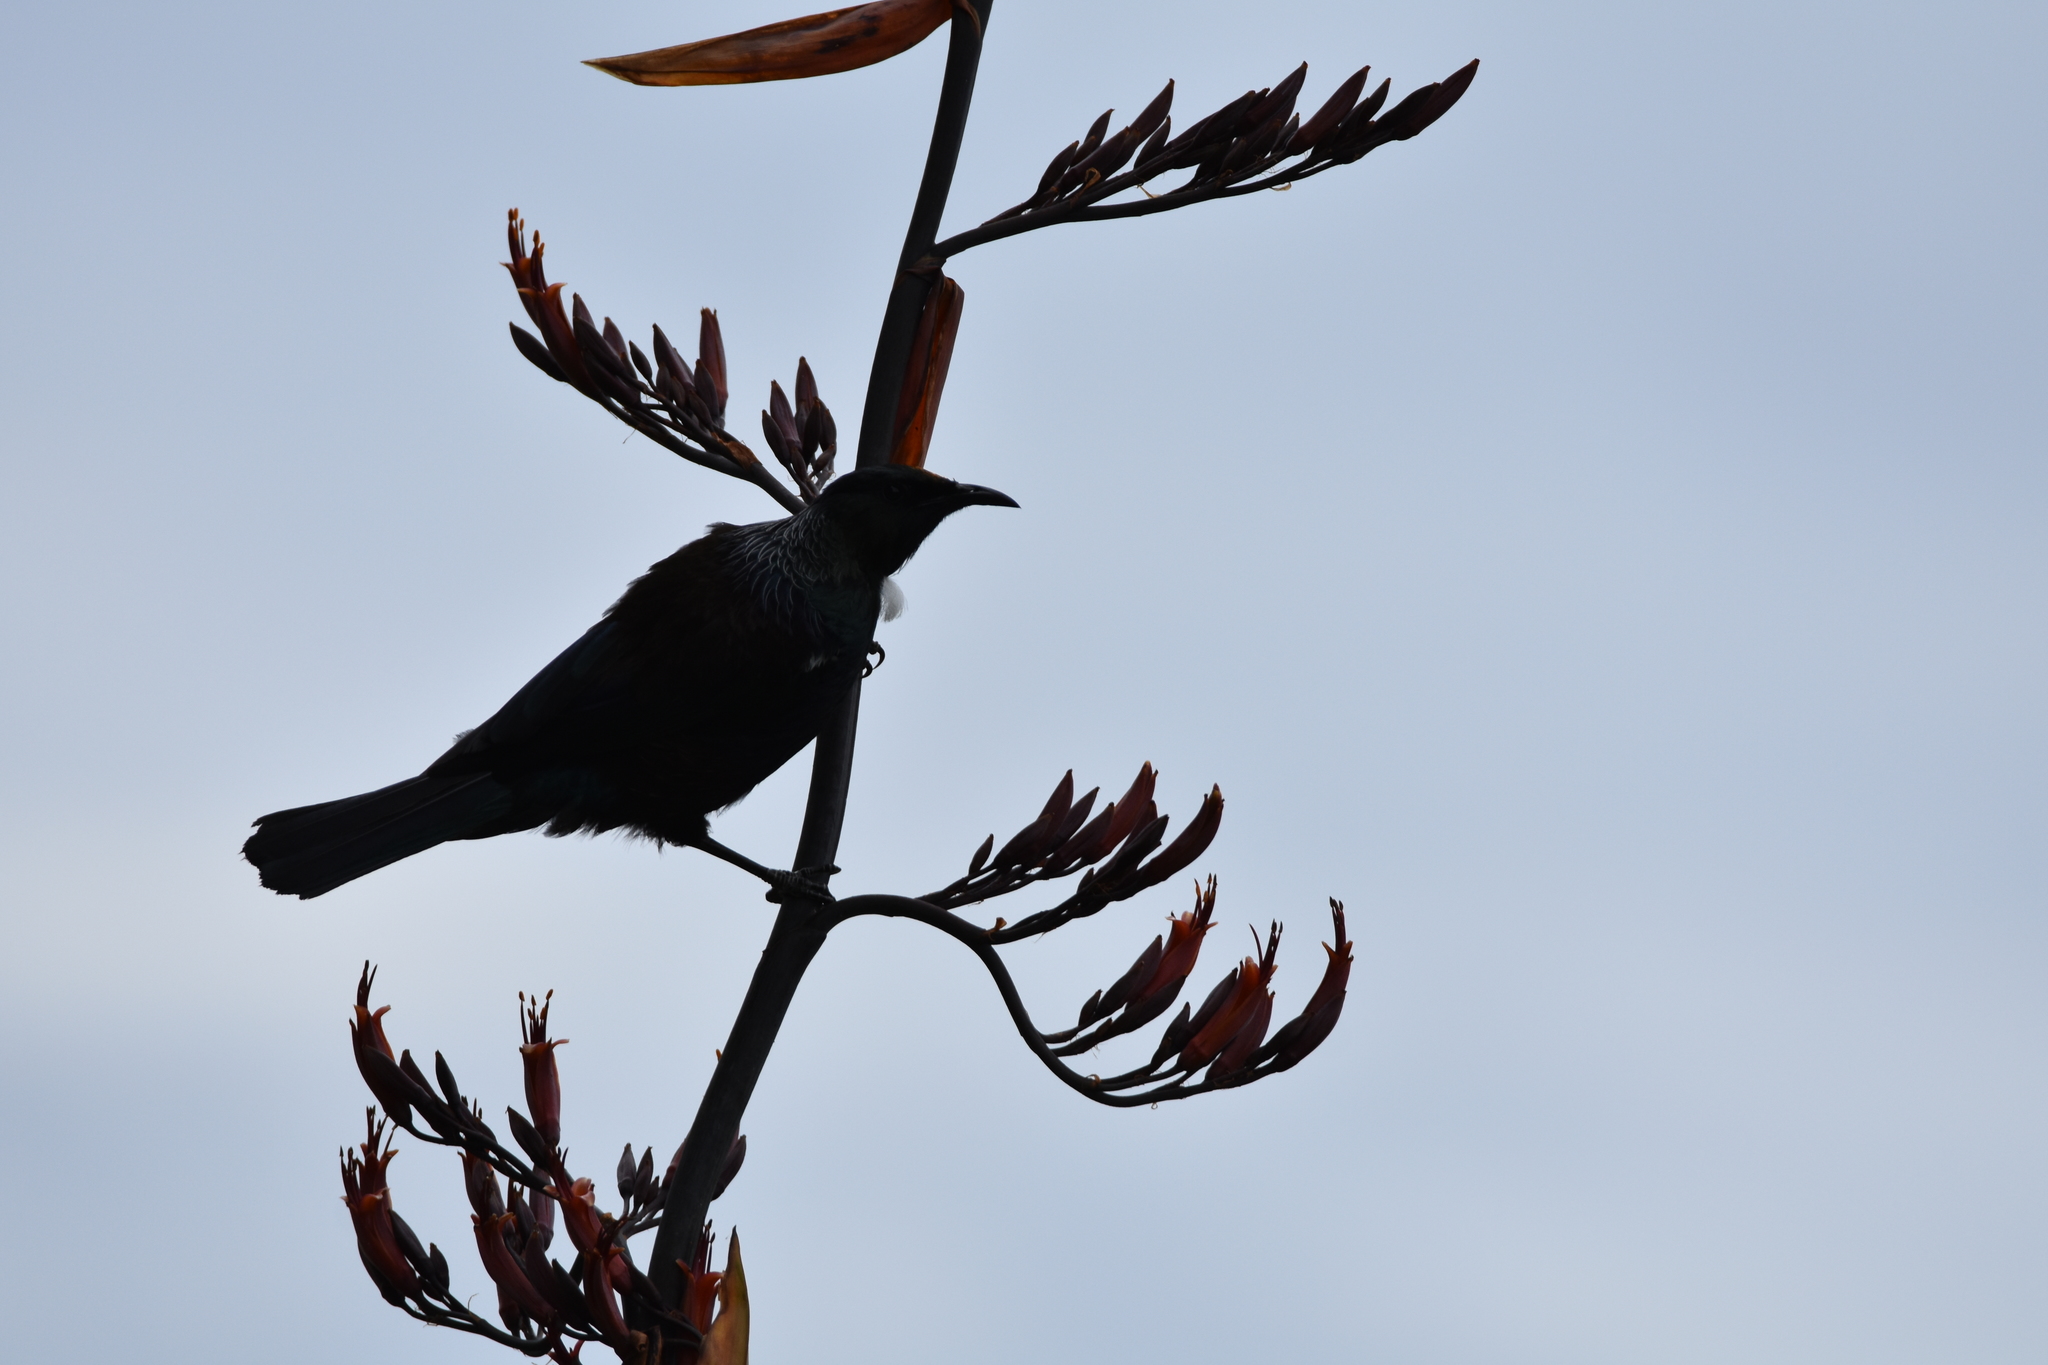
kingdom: Animalia
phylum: Chordata
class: Aves
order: Passeriformes
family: Meliphagidae
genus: Prosthemadera
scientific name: Prosthemadera novaeseelandiae
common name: Tui
